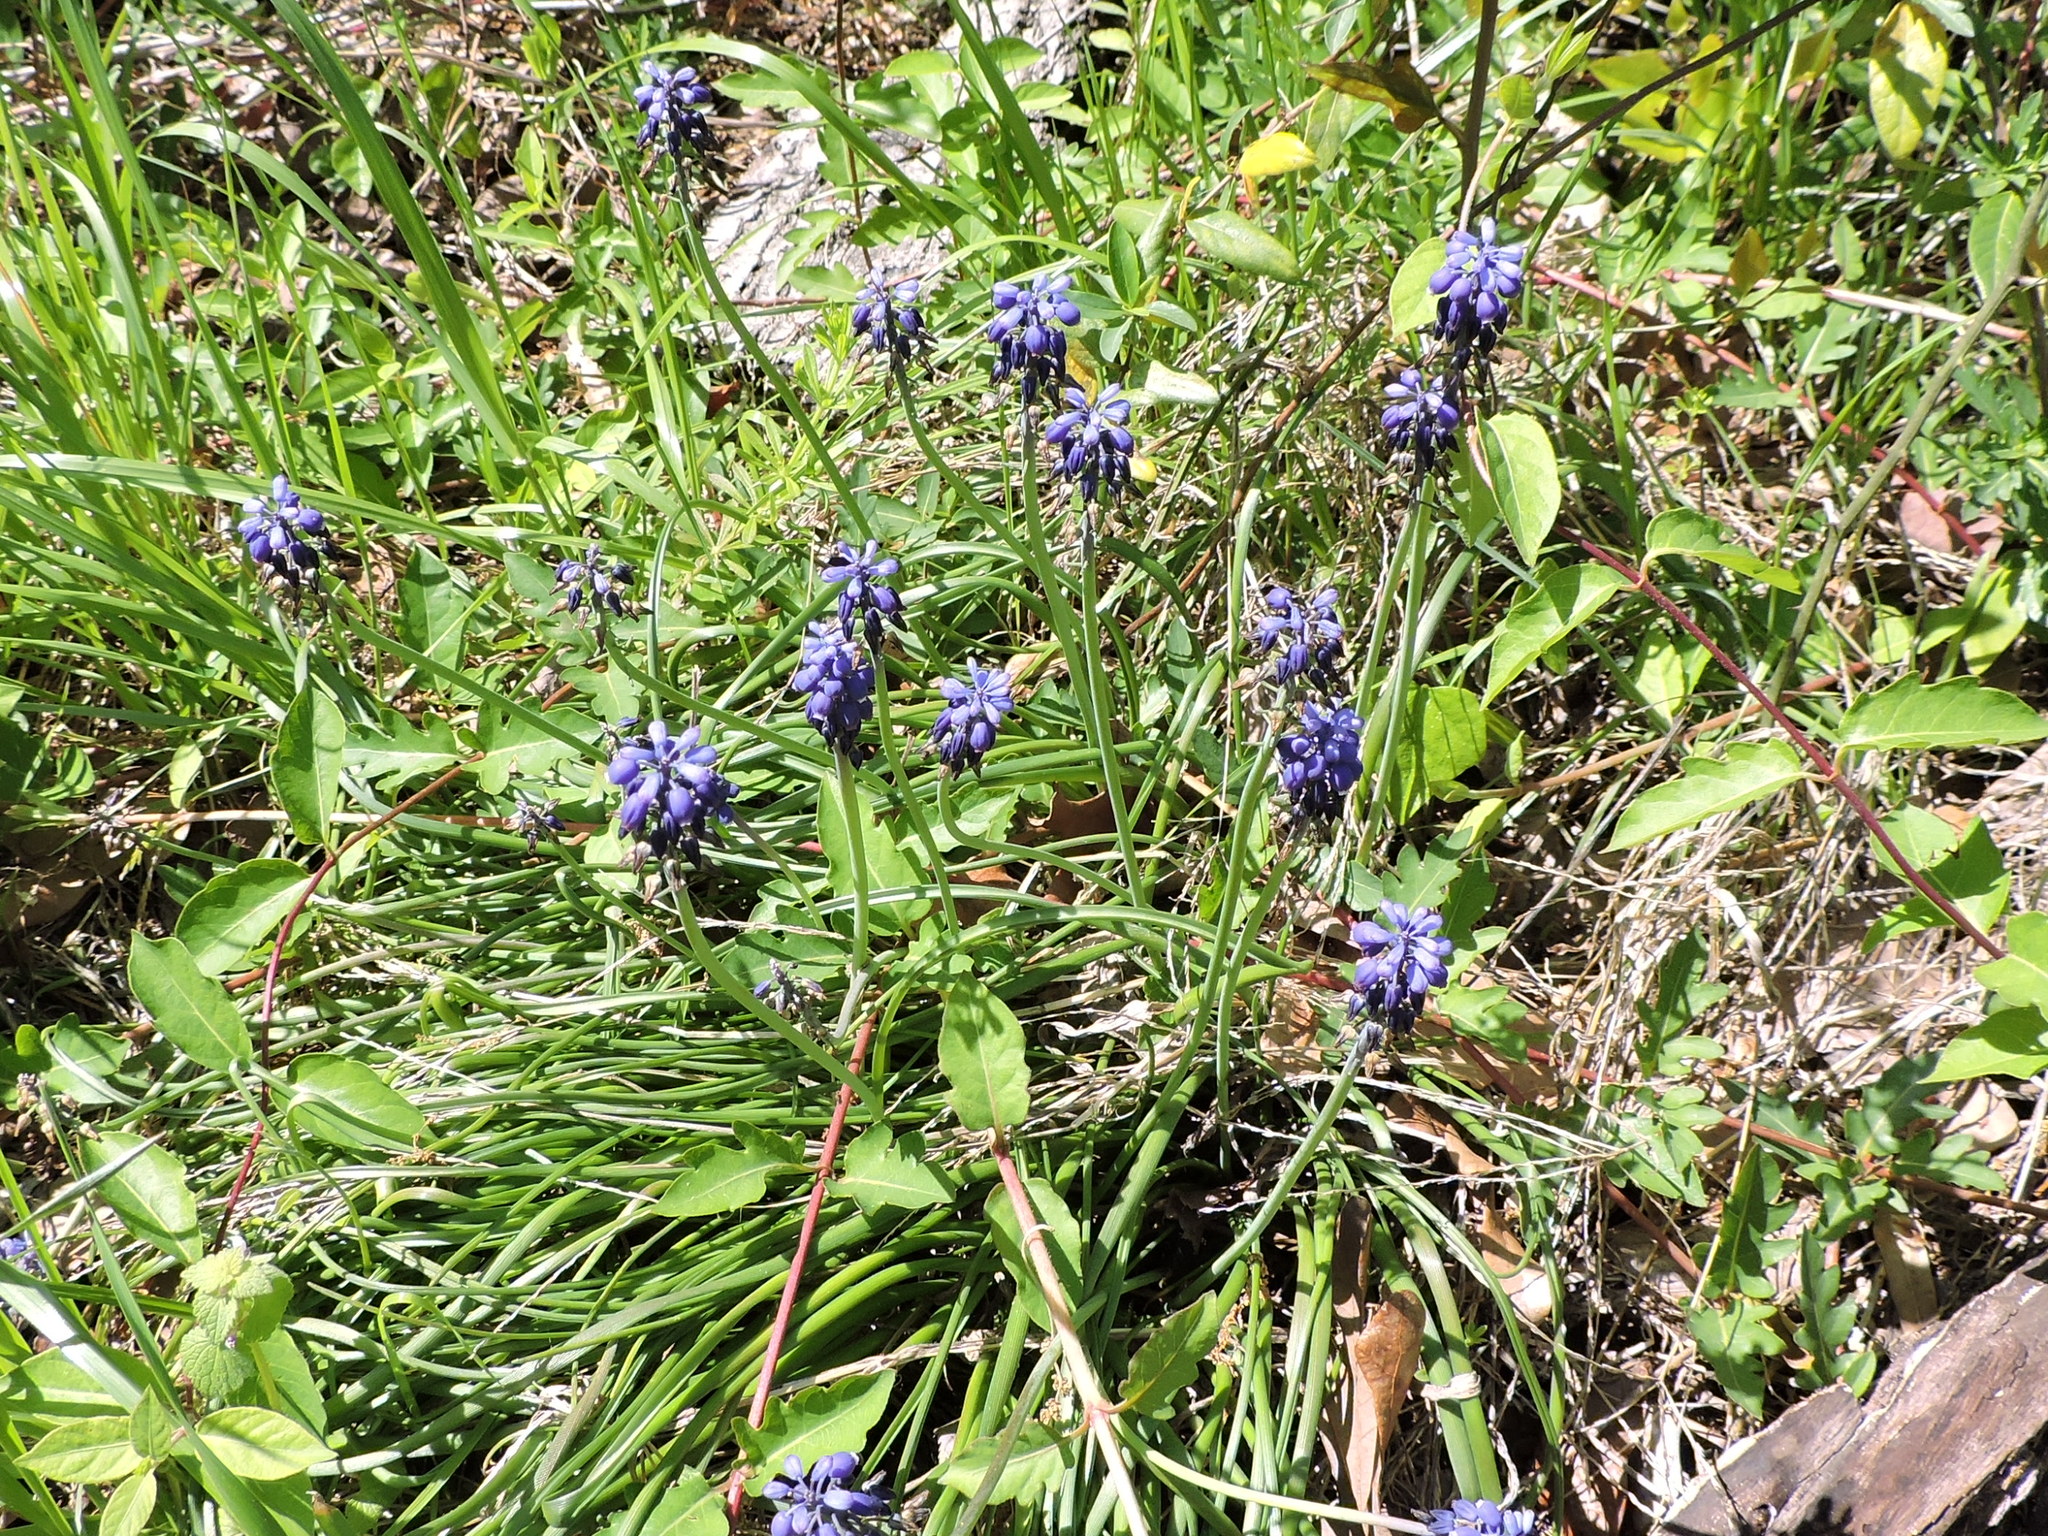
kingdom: Plantae
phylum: Tracheophyta
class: Liliopsida
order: Asparagales
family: Asparagaceae
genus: Muscari
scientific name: Muscari neglectum
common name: Grape-hyacinth
